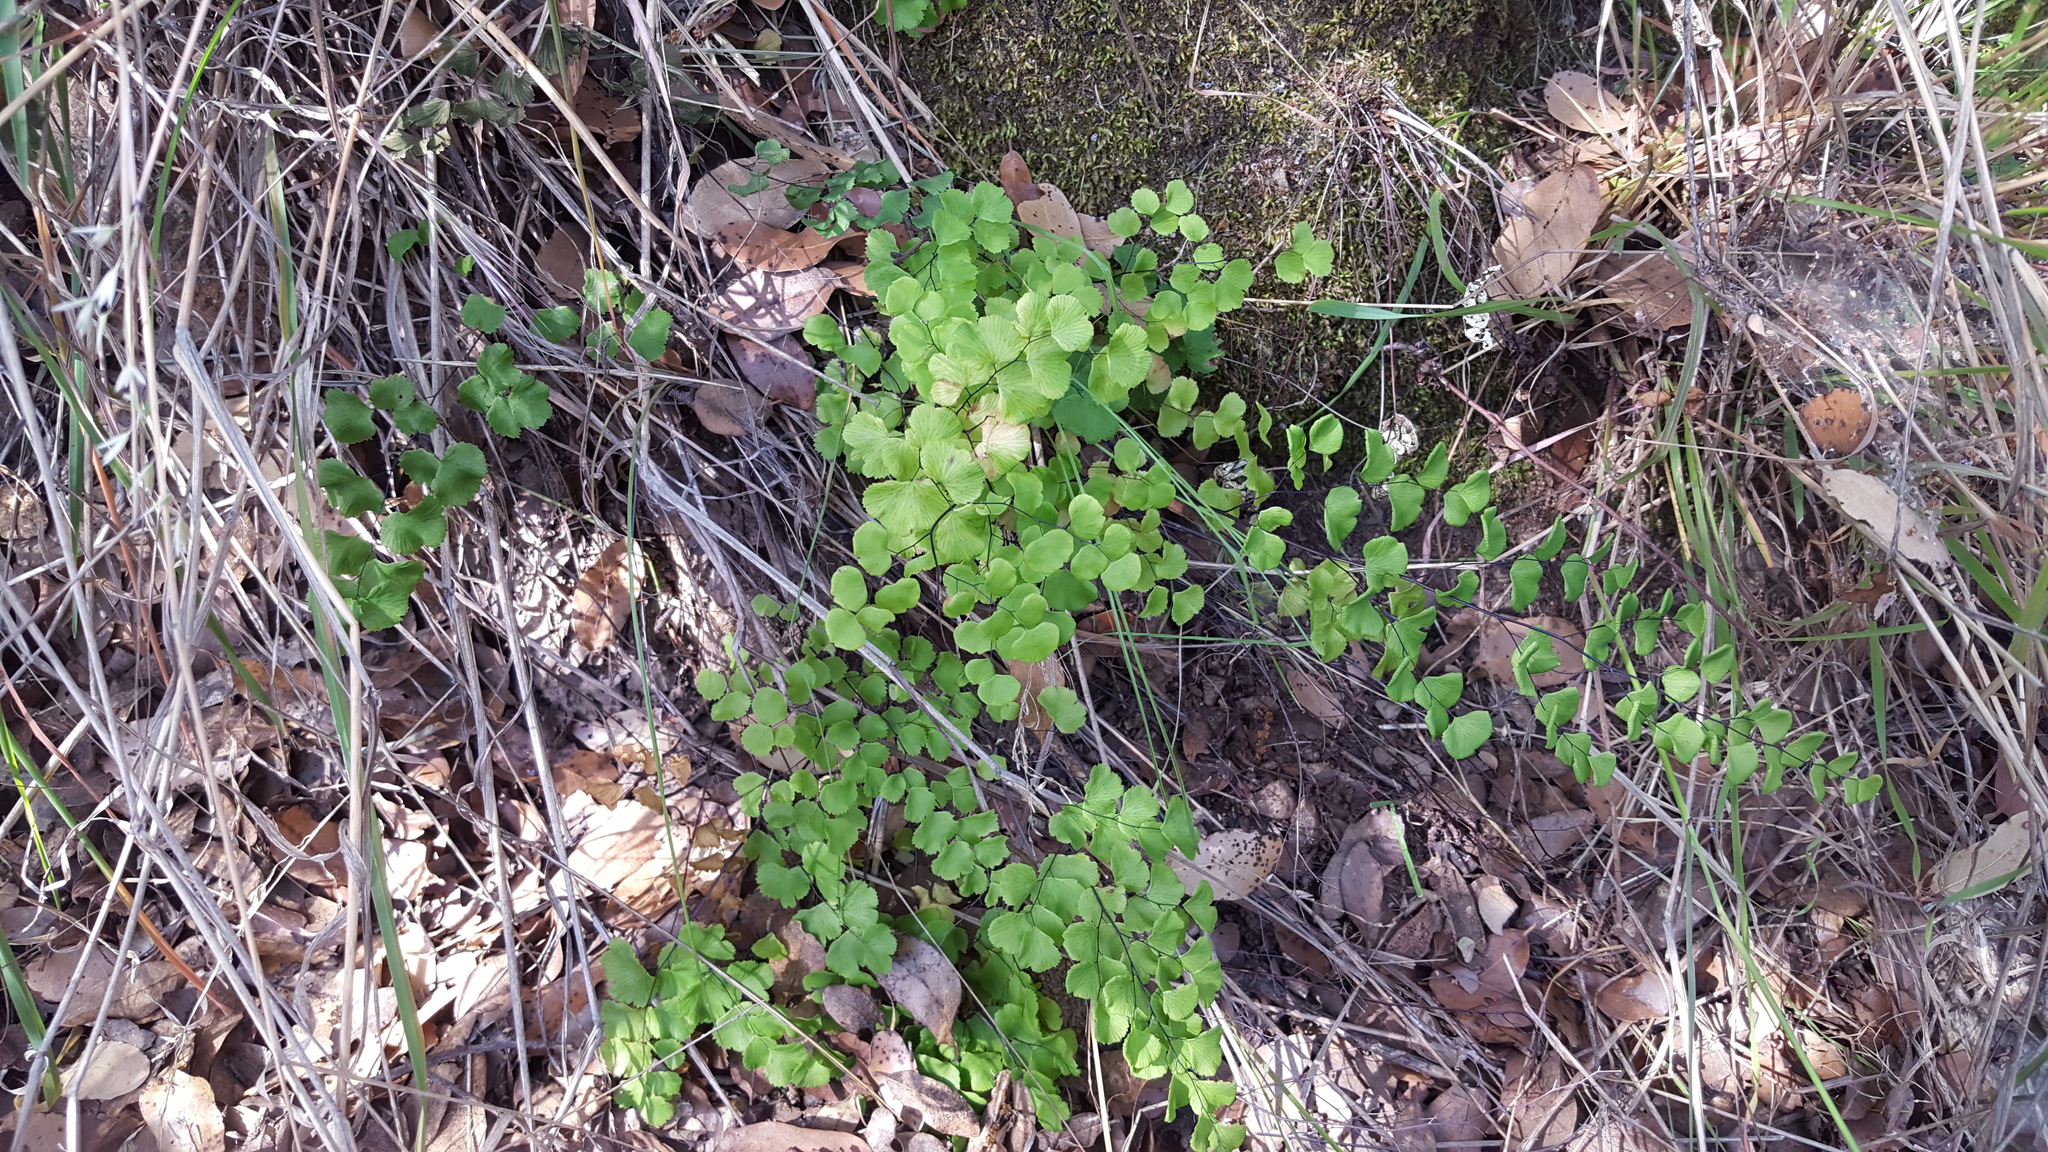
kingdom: Plantae
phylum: Tracheophyta
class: Polypodiopsida
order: Polypodiales
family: Pteridaceae
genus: Adiantum
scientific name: Adiantum jordanii
